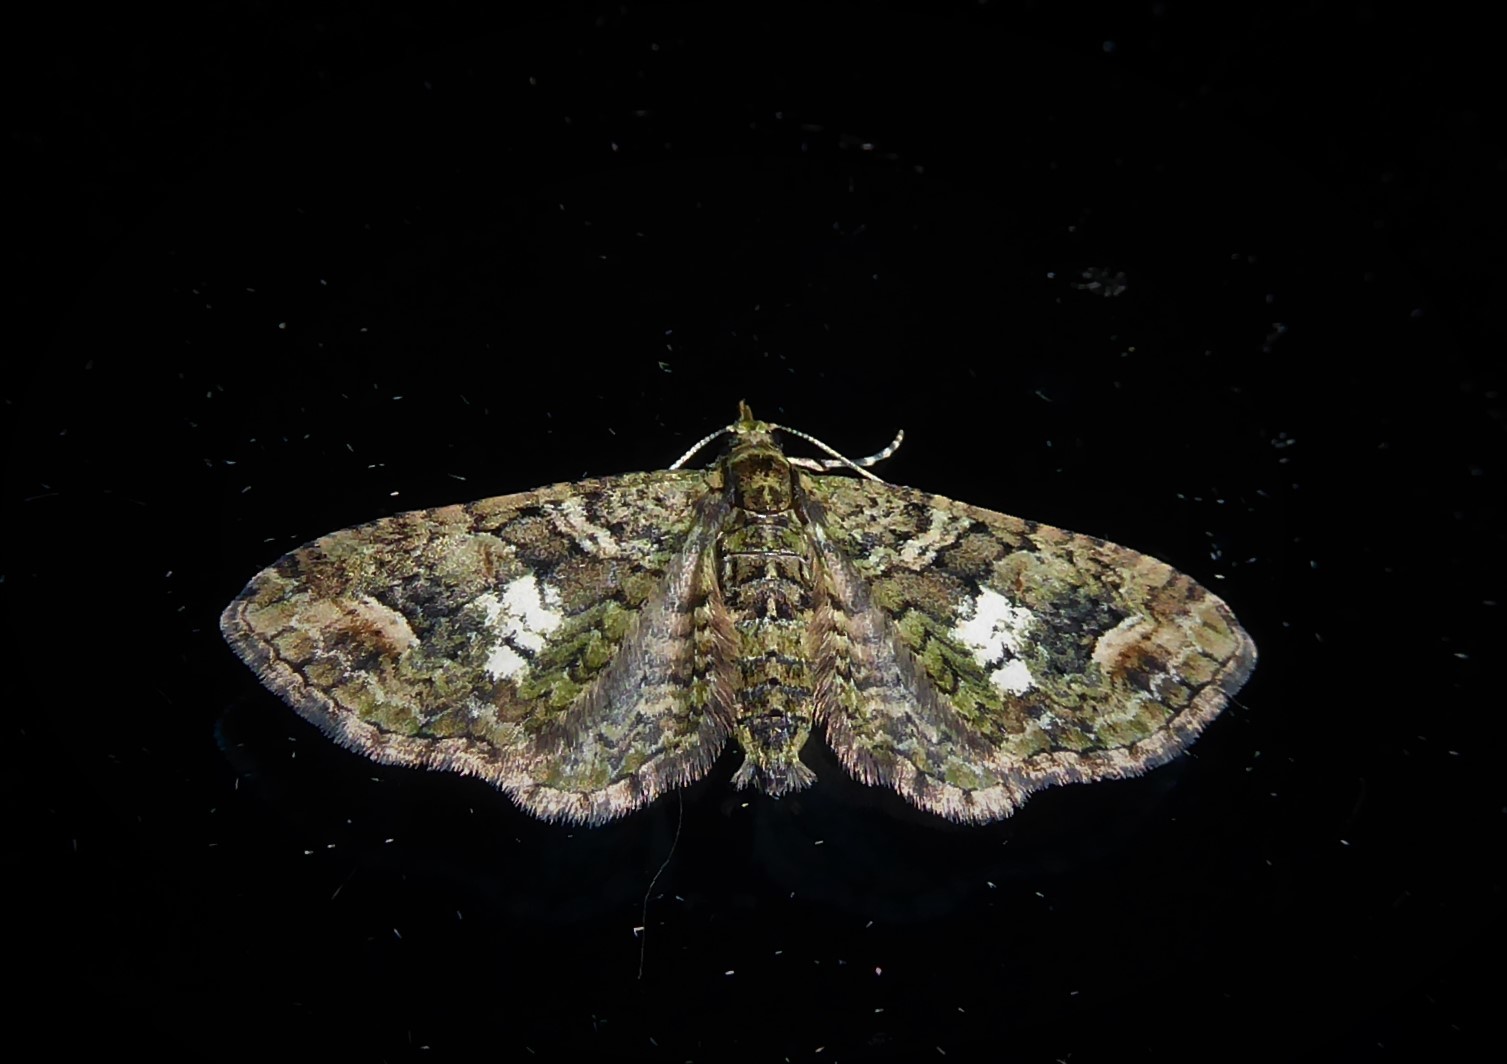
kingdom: Animalia
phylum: Arthropoda
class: Insecta
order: Lepidoptera
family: Geometridae
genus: Idaea
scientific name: Idaea mutanda
